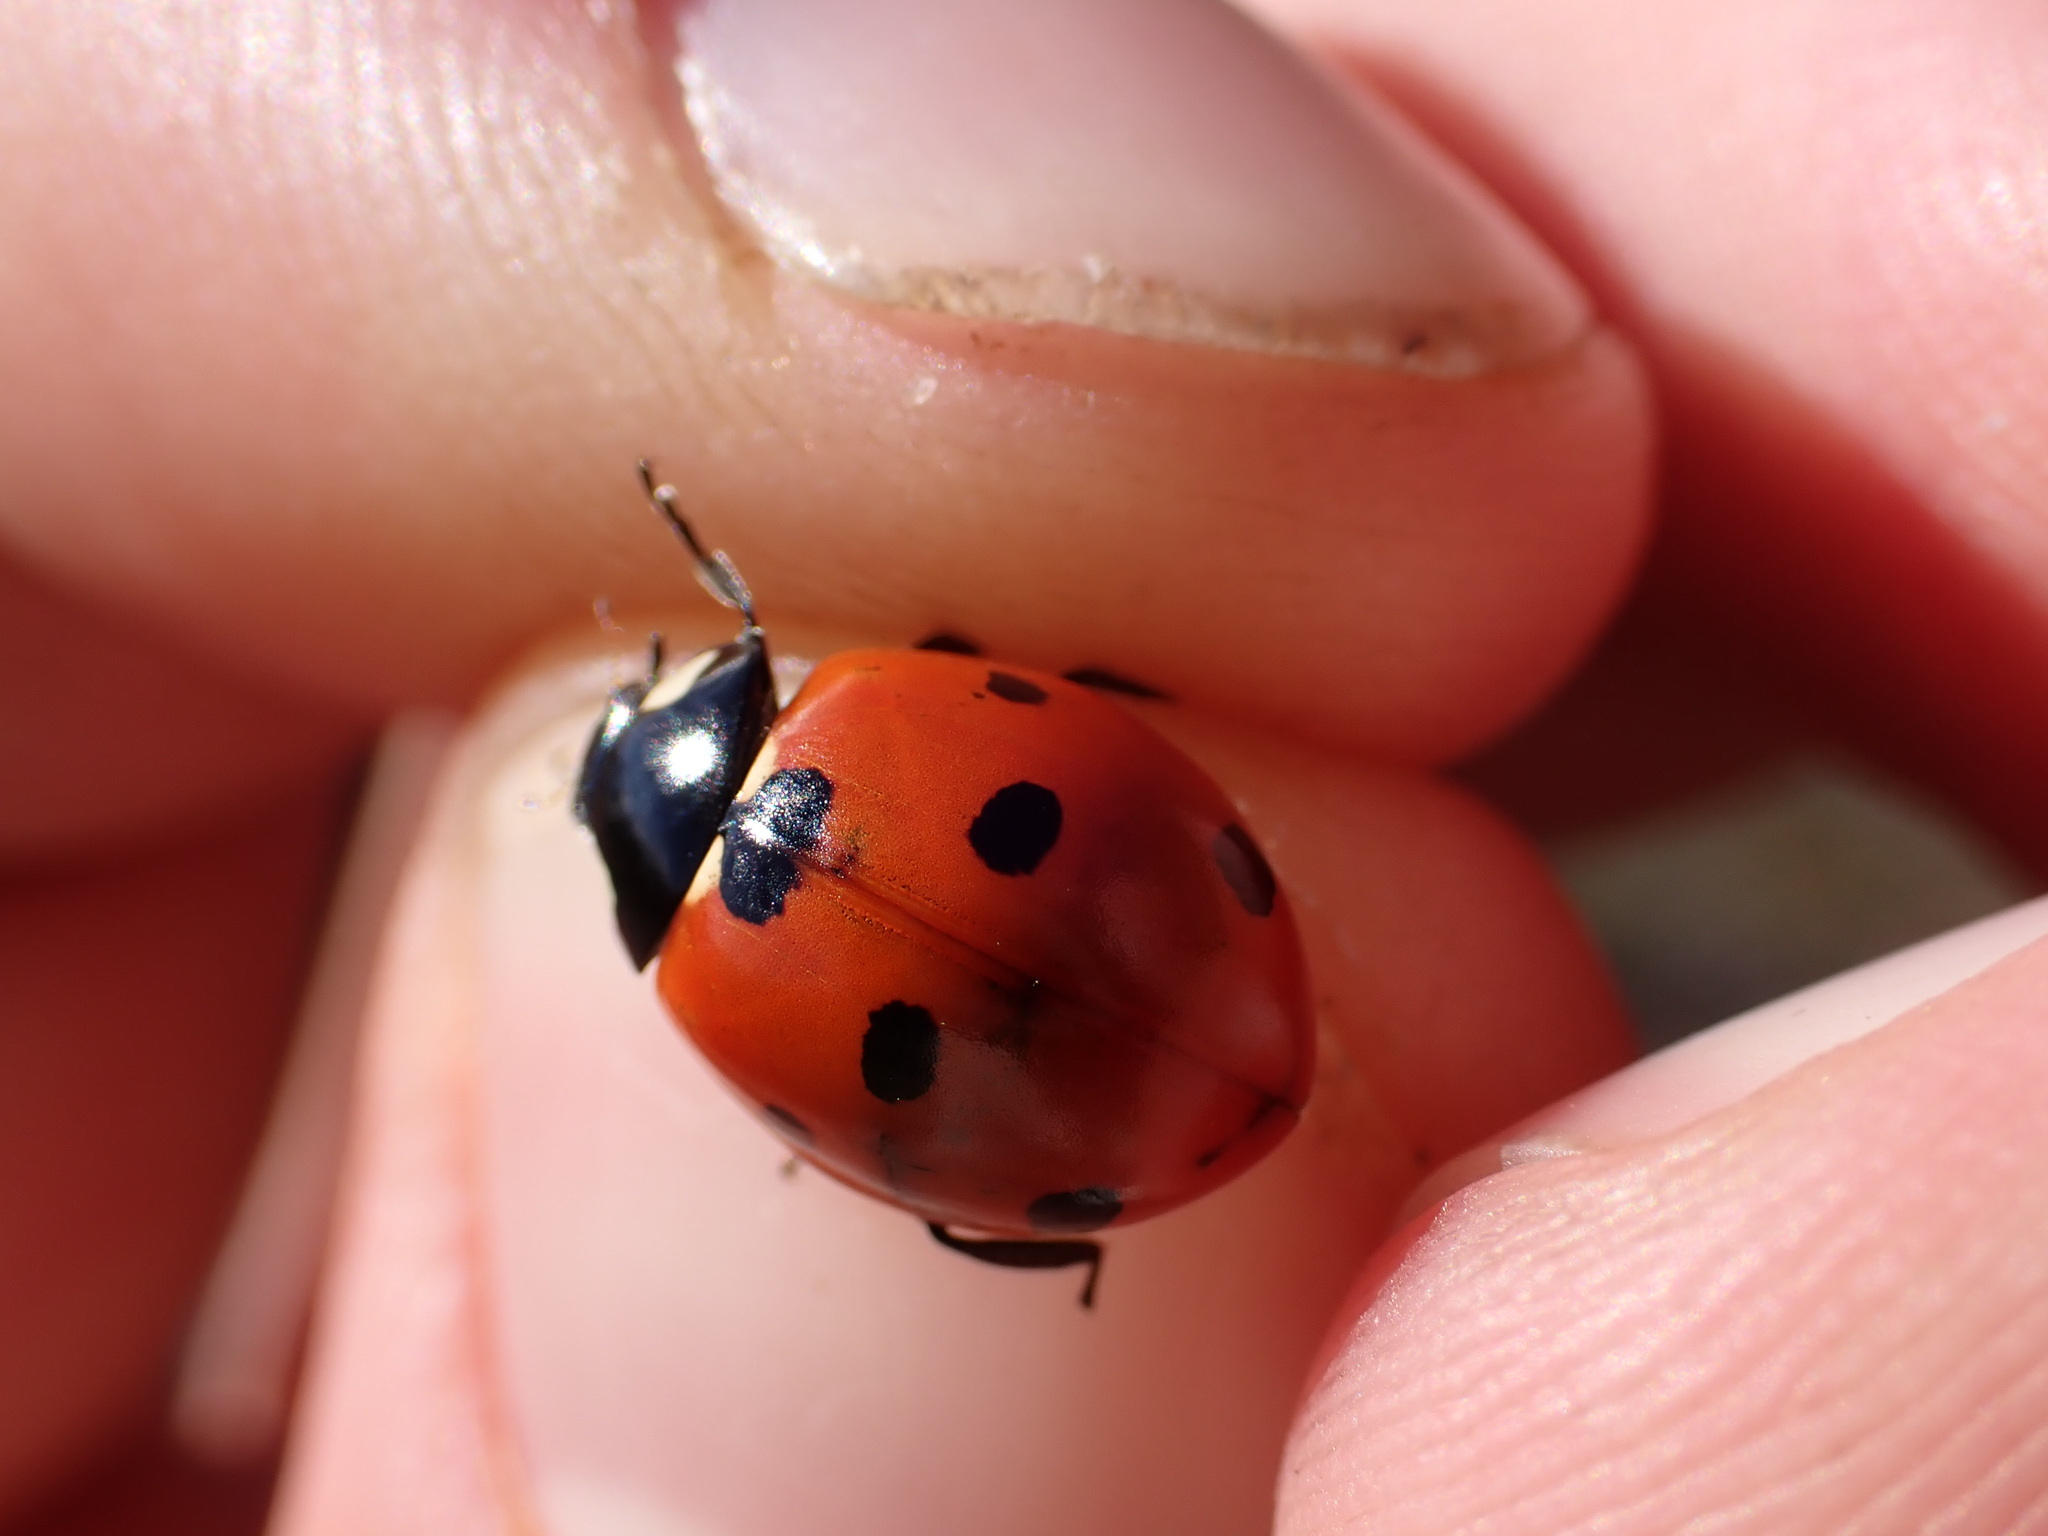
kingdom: Animalia
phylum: Arthropoda
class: Insecta
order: Coleoptera
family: Coccinellidae
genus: Coccinella
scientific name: Coccinella septempunctata
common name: Sevenspotted lady beetle
